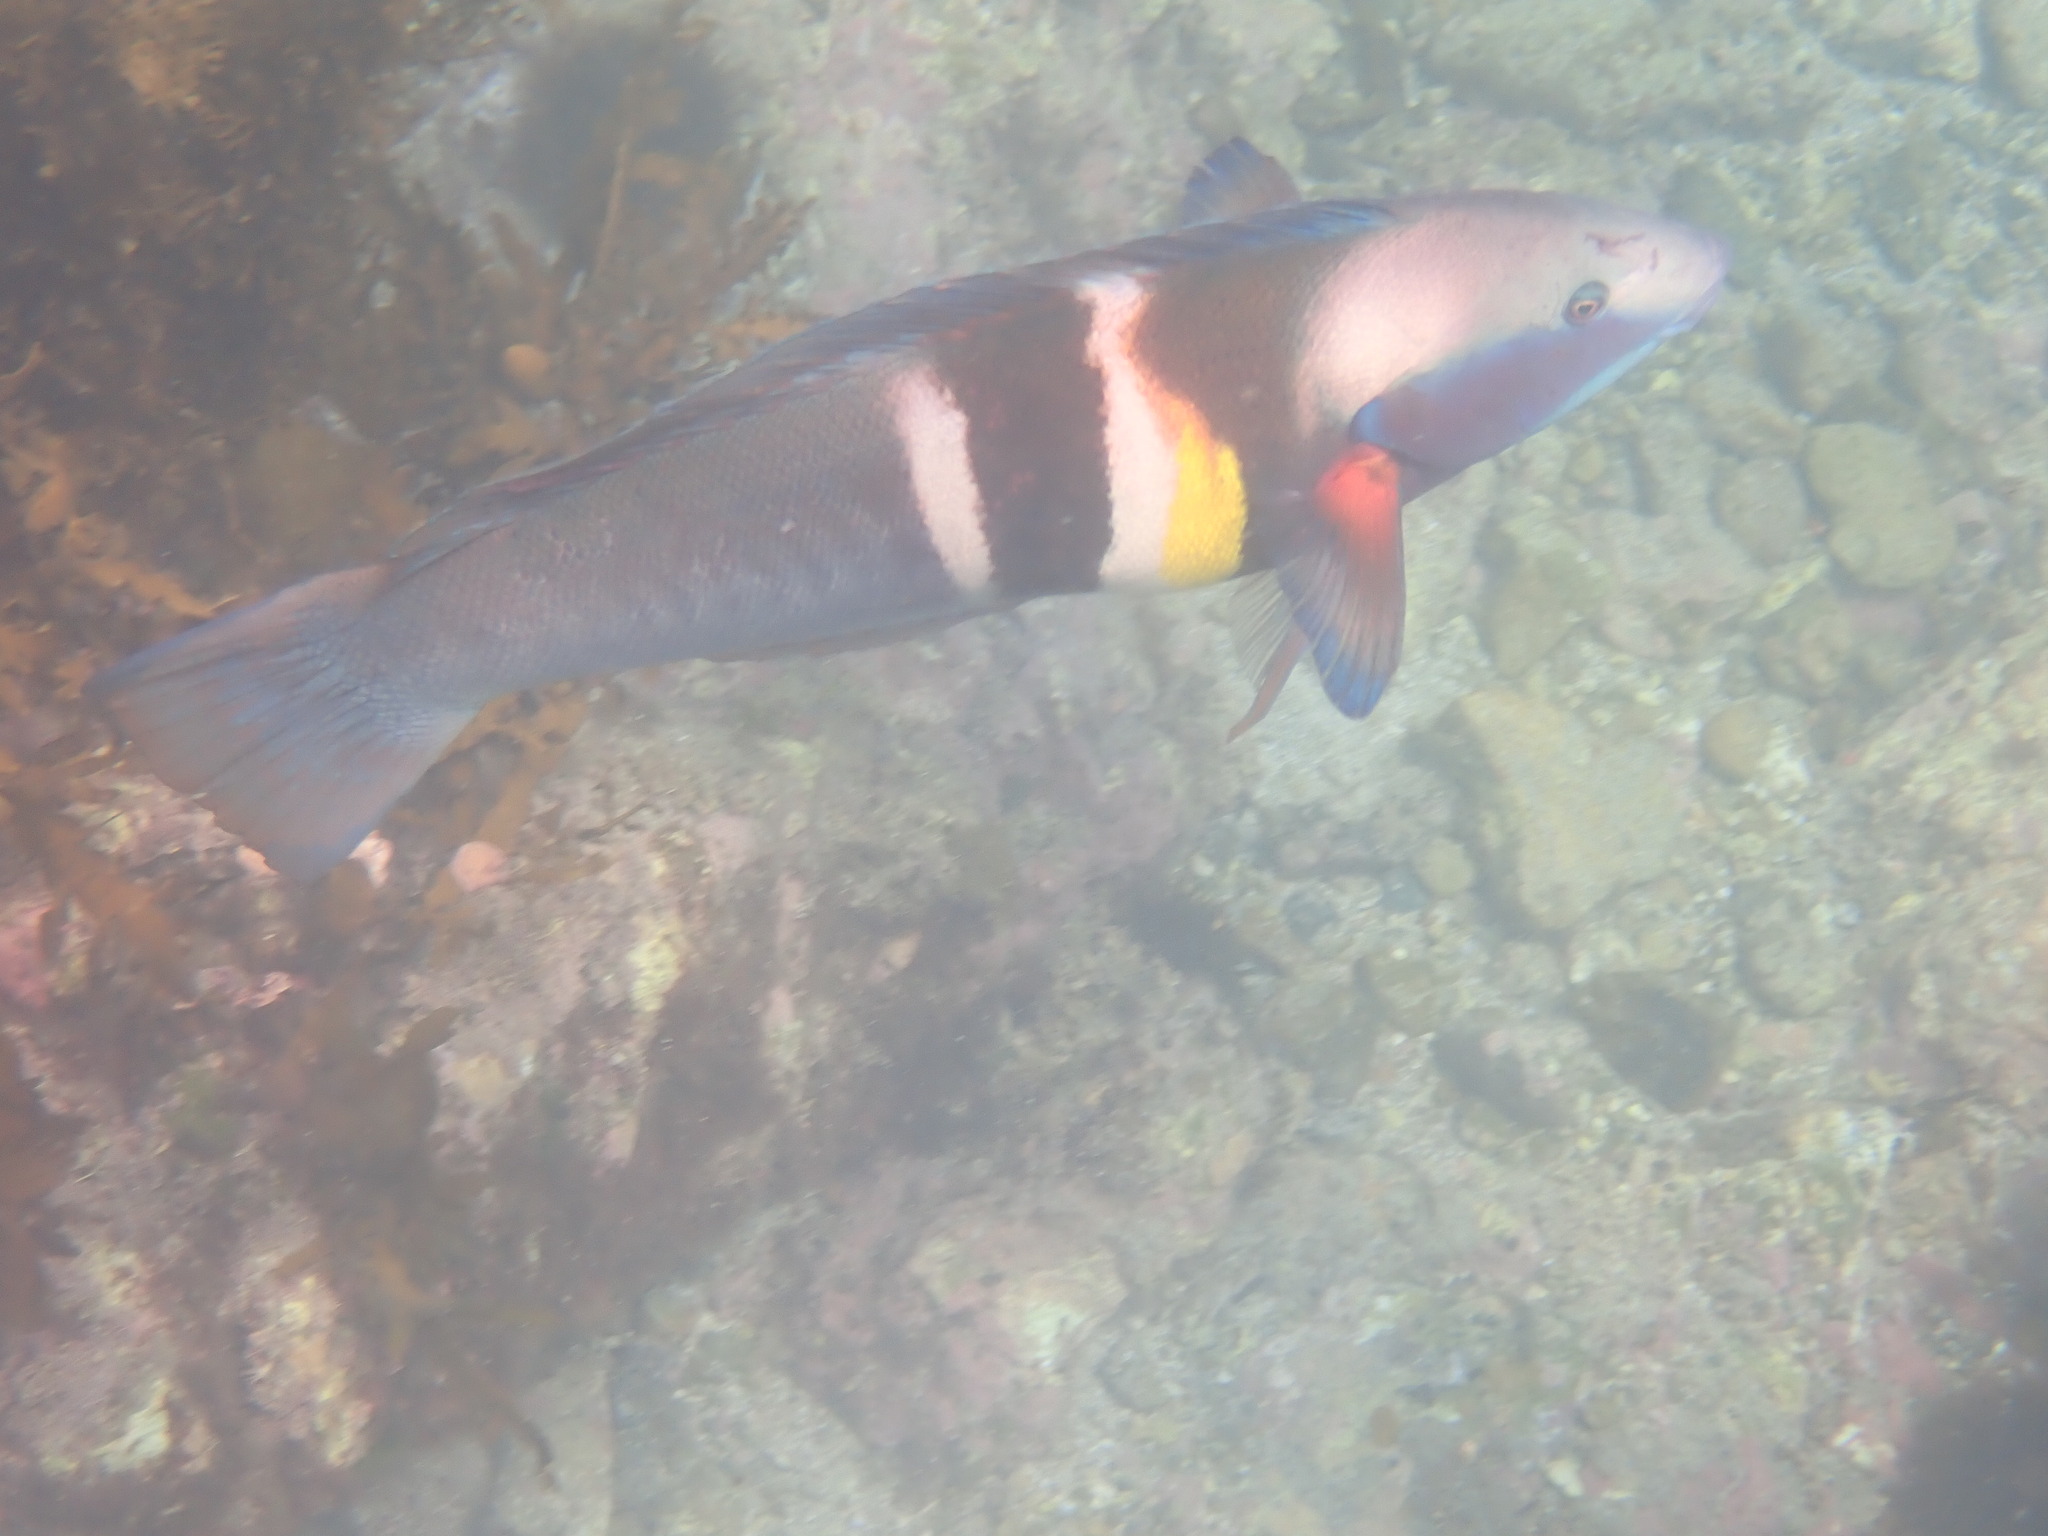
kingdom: Animalia
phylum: Chordata
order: Perciformes
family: Labridae
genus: Coris
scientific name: Coris sandeyeri
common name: Sandager's wrasse
